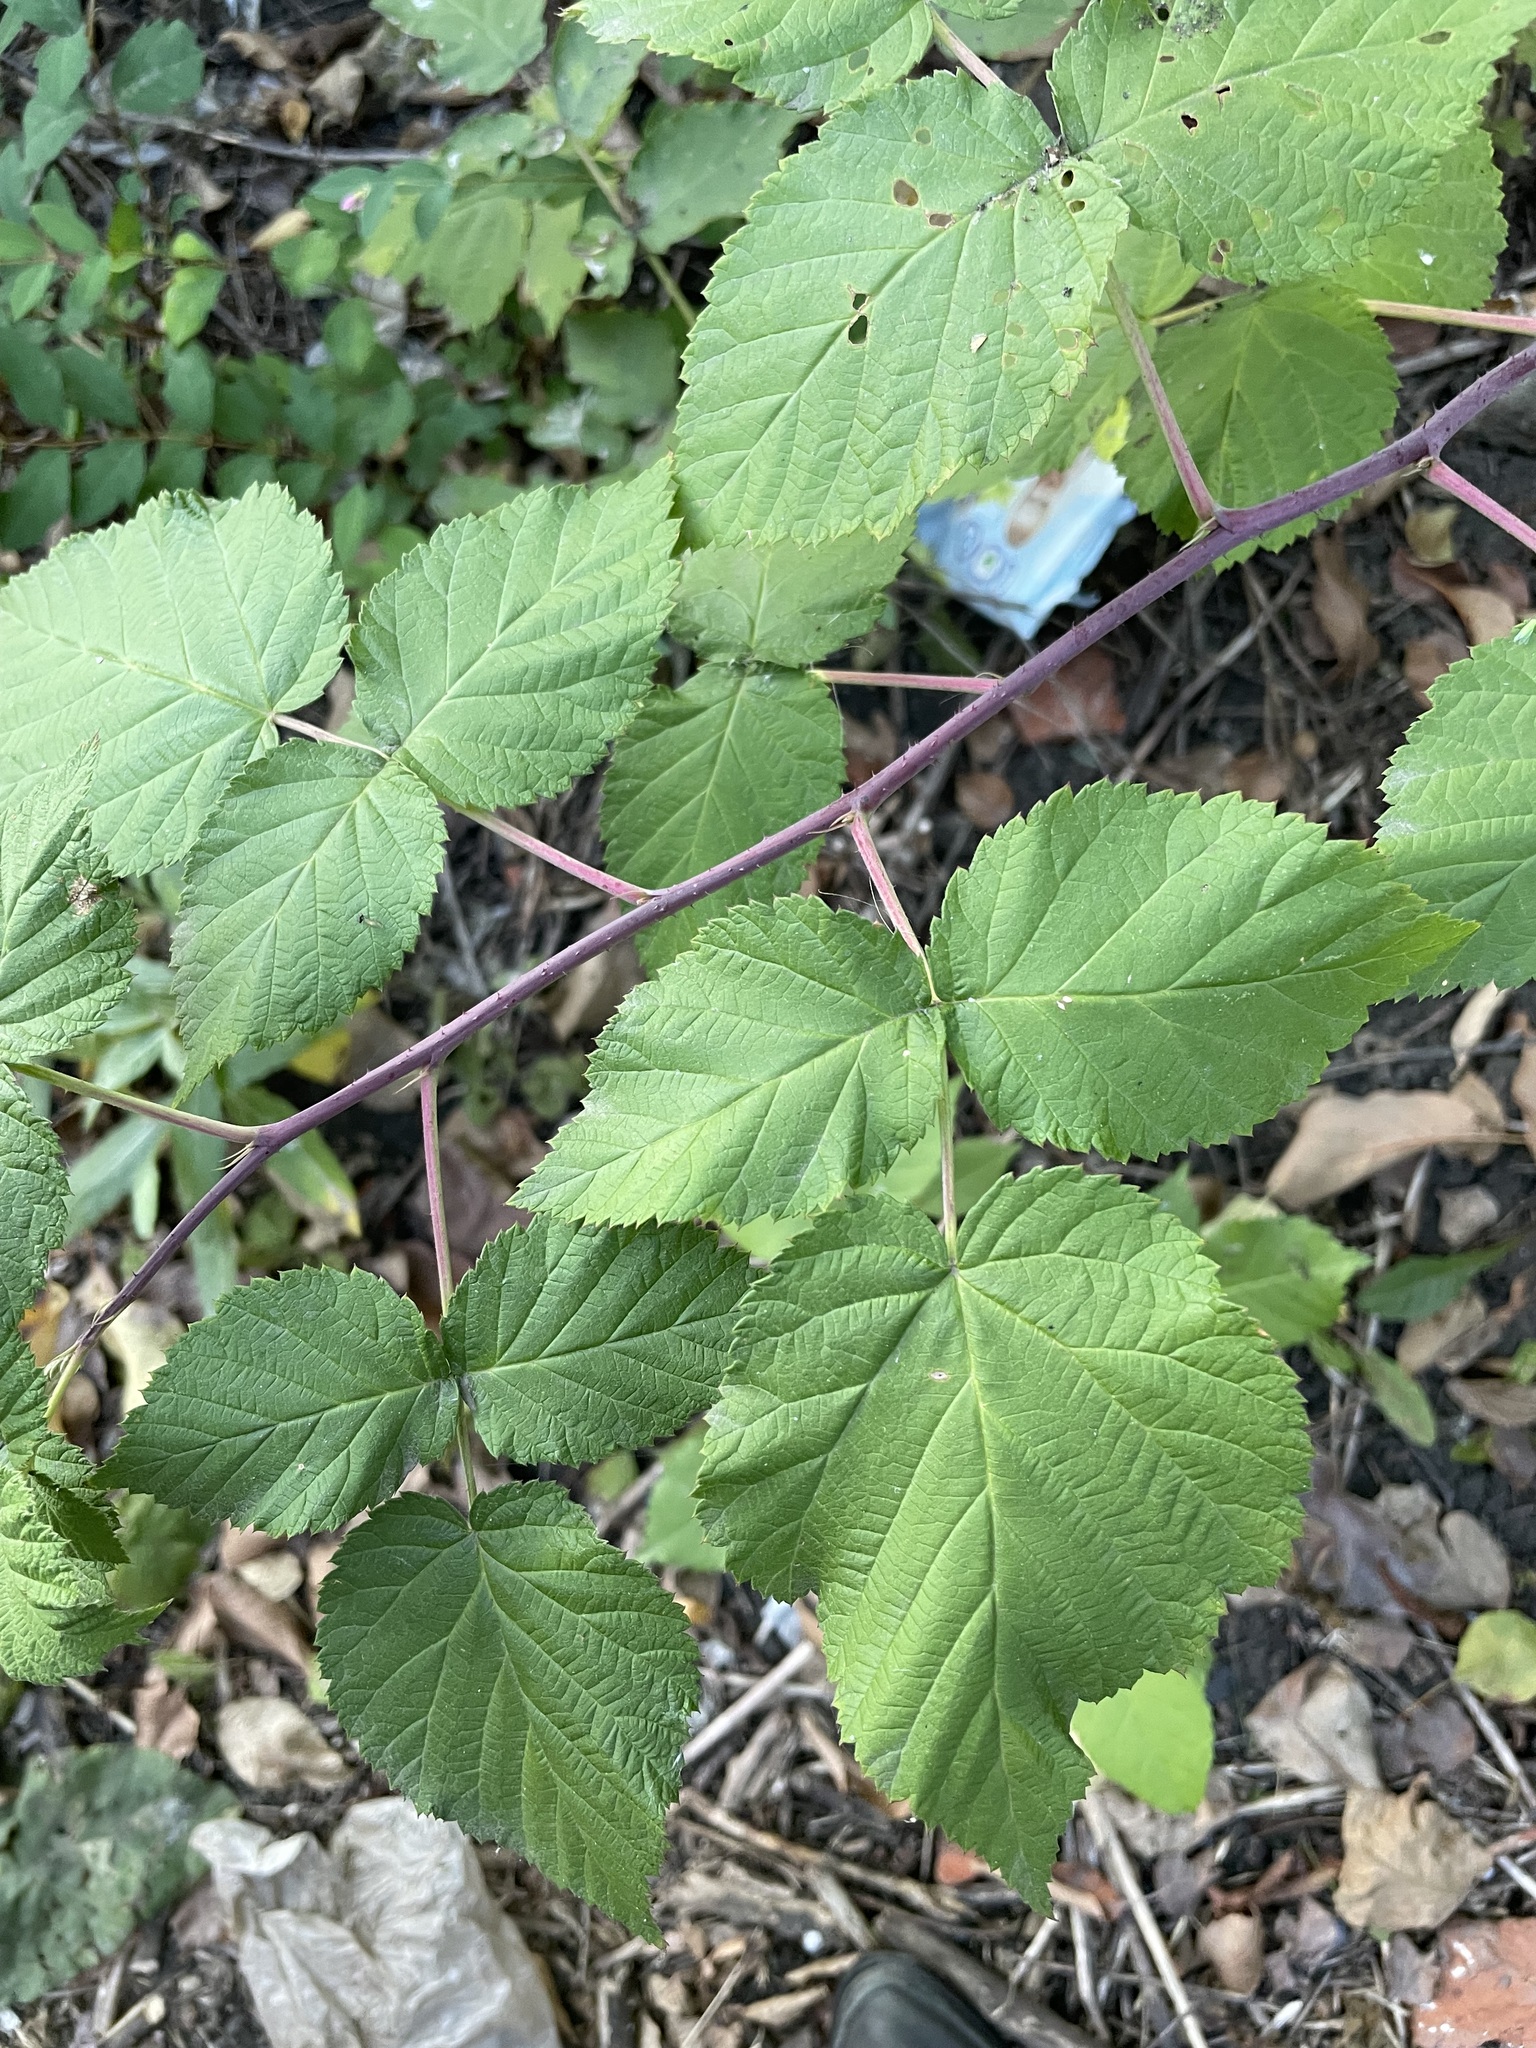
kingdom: Plantae
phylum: Tracheophyta
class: Magnoliopsida
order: Rosales
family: Rosaceae
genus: Rubus
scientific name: Rubus idaeus
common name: Raspberry
